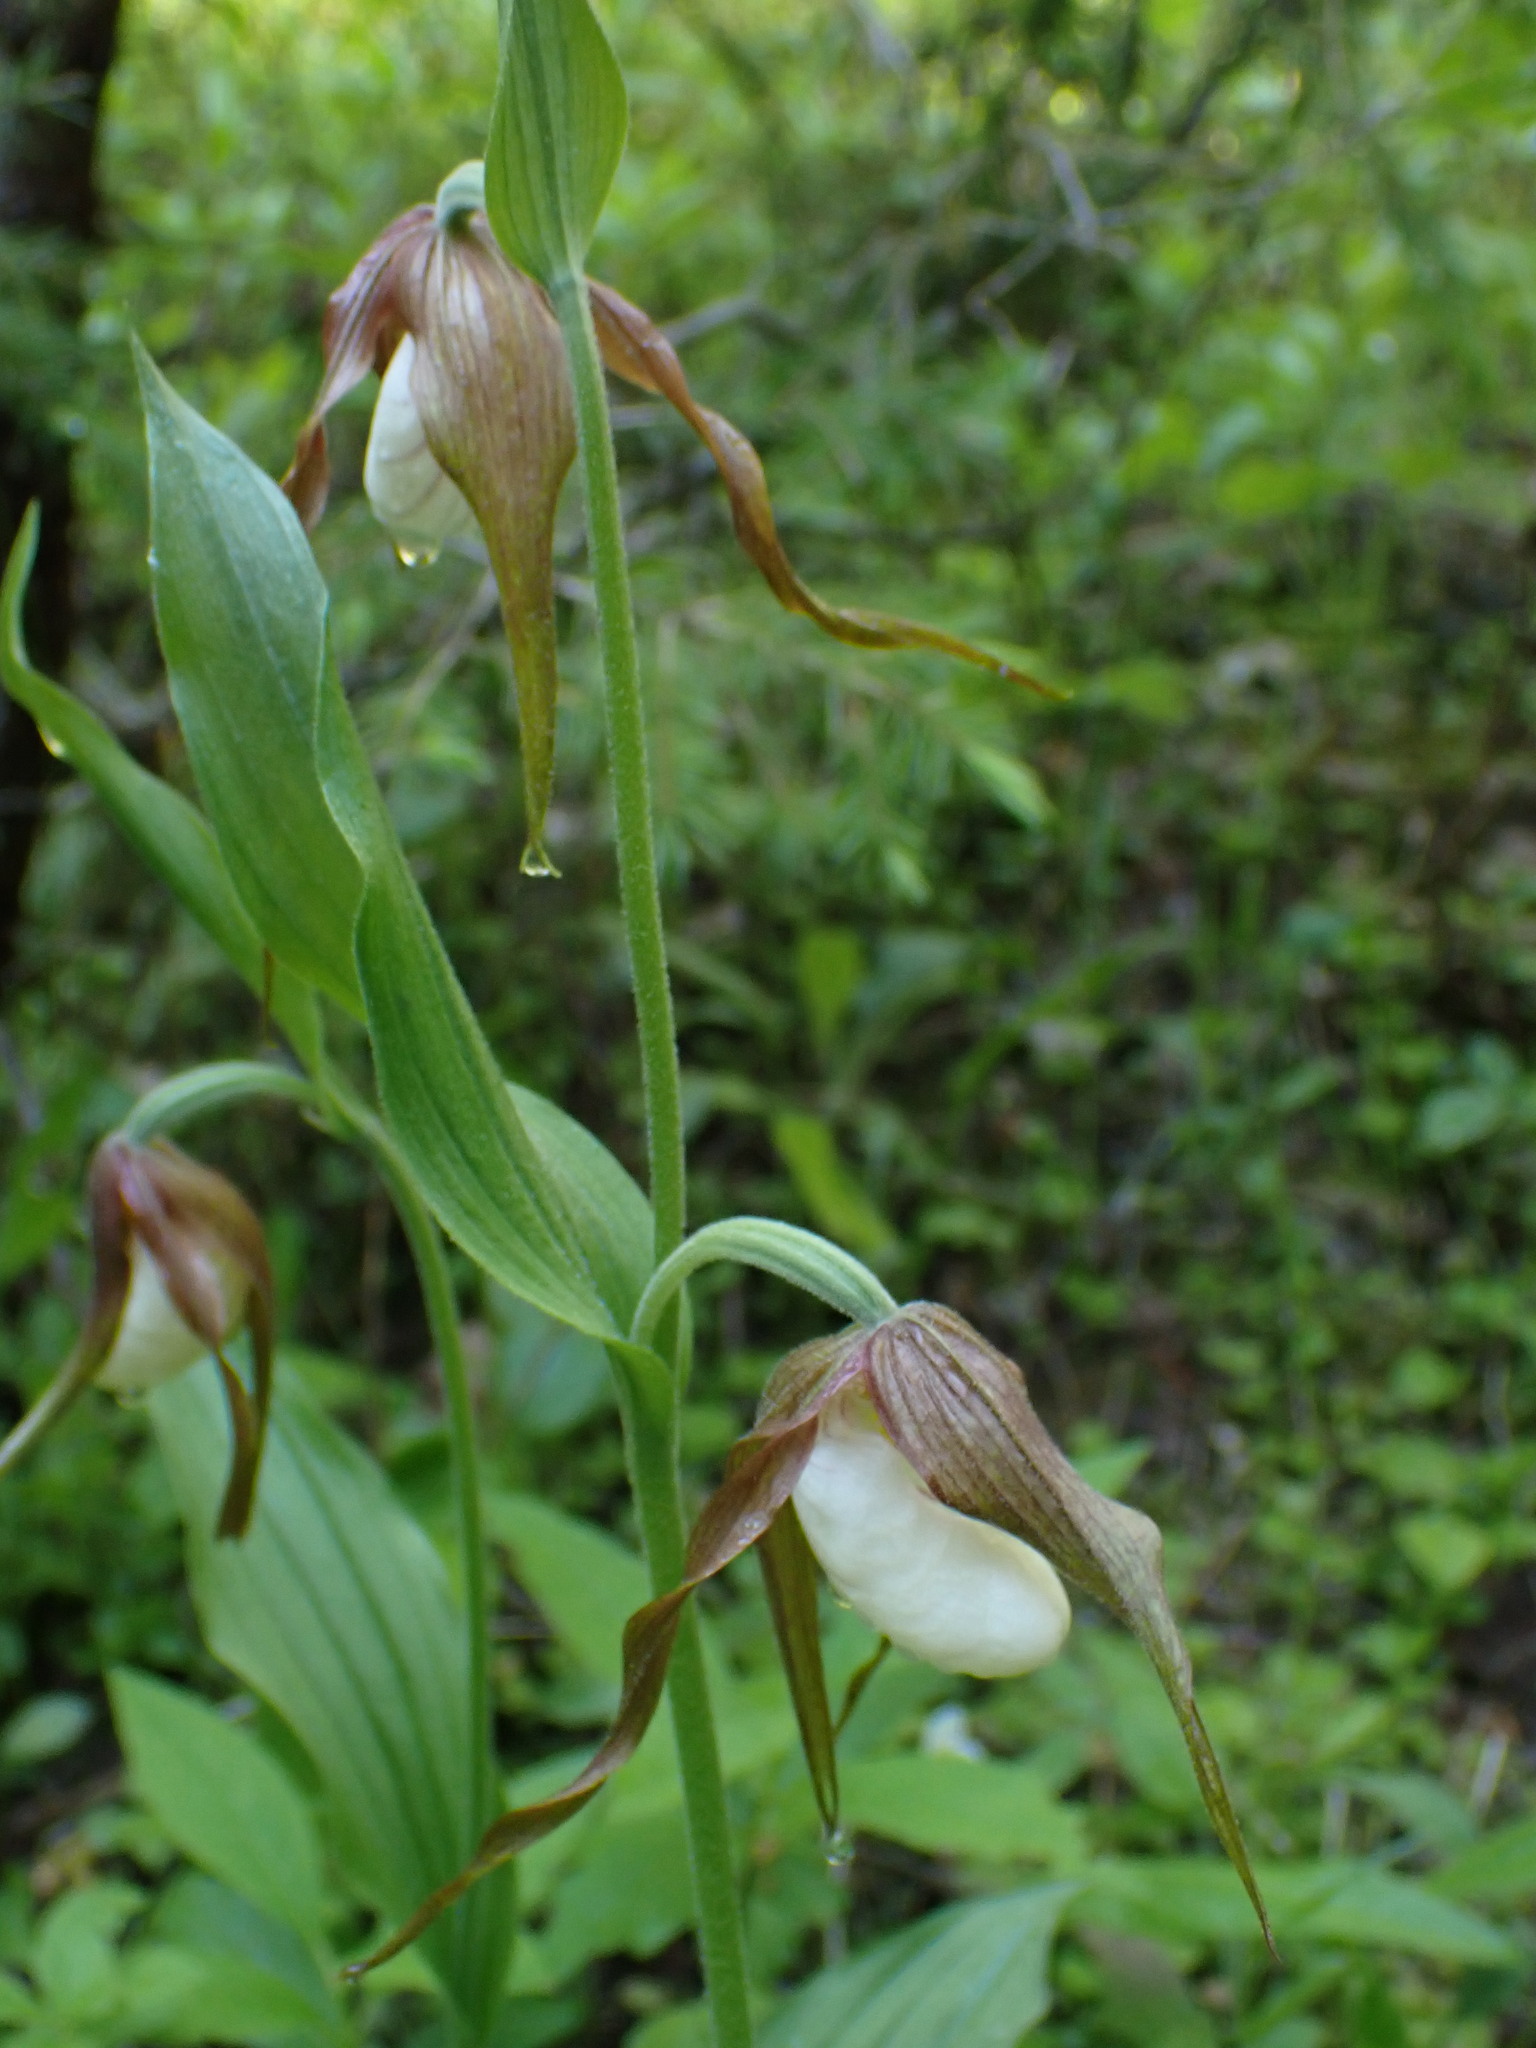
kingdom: Plantae
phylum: Tracheophyta
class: Liliopsida
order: Asparagales
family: Orchidaceae
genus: Cypripedium
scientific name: Cypripedium montanum
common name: Mountain lady's-slipper
